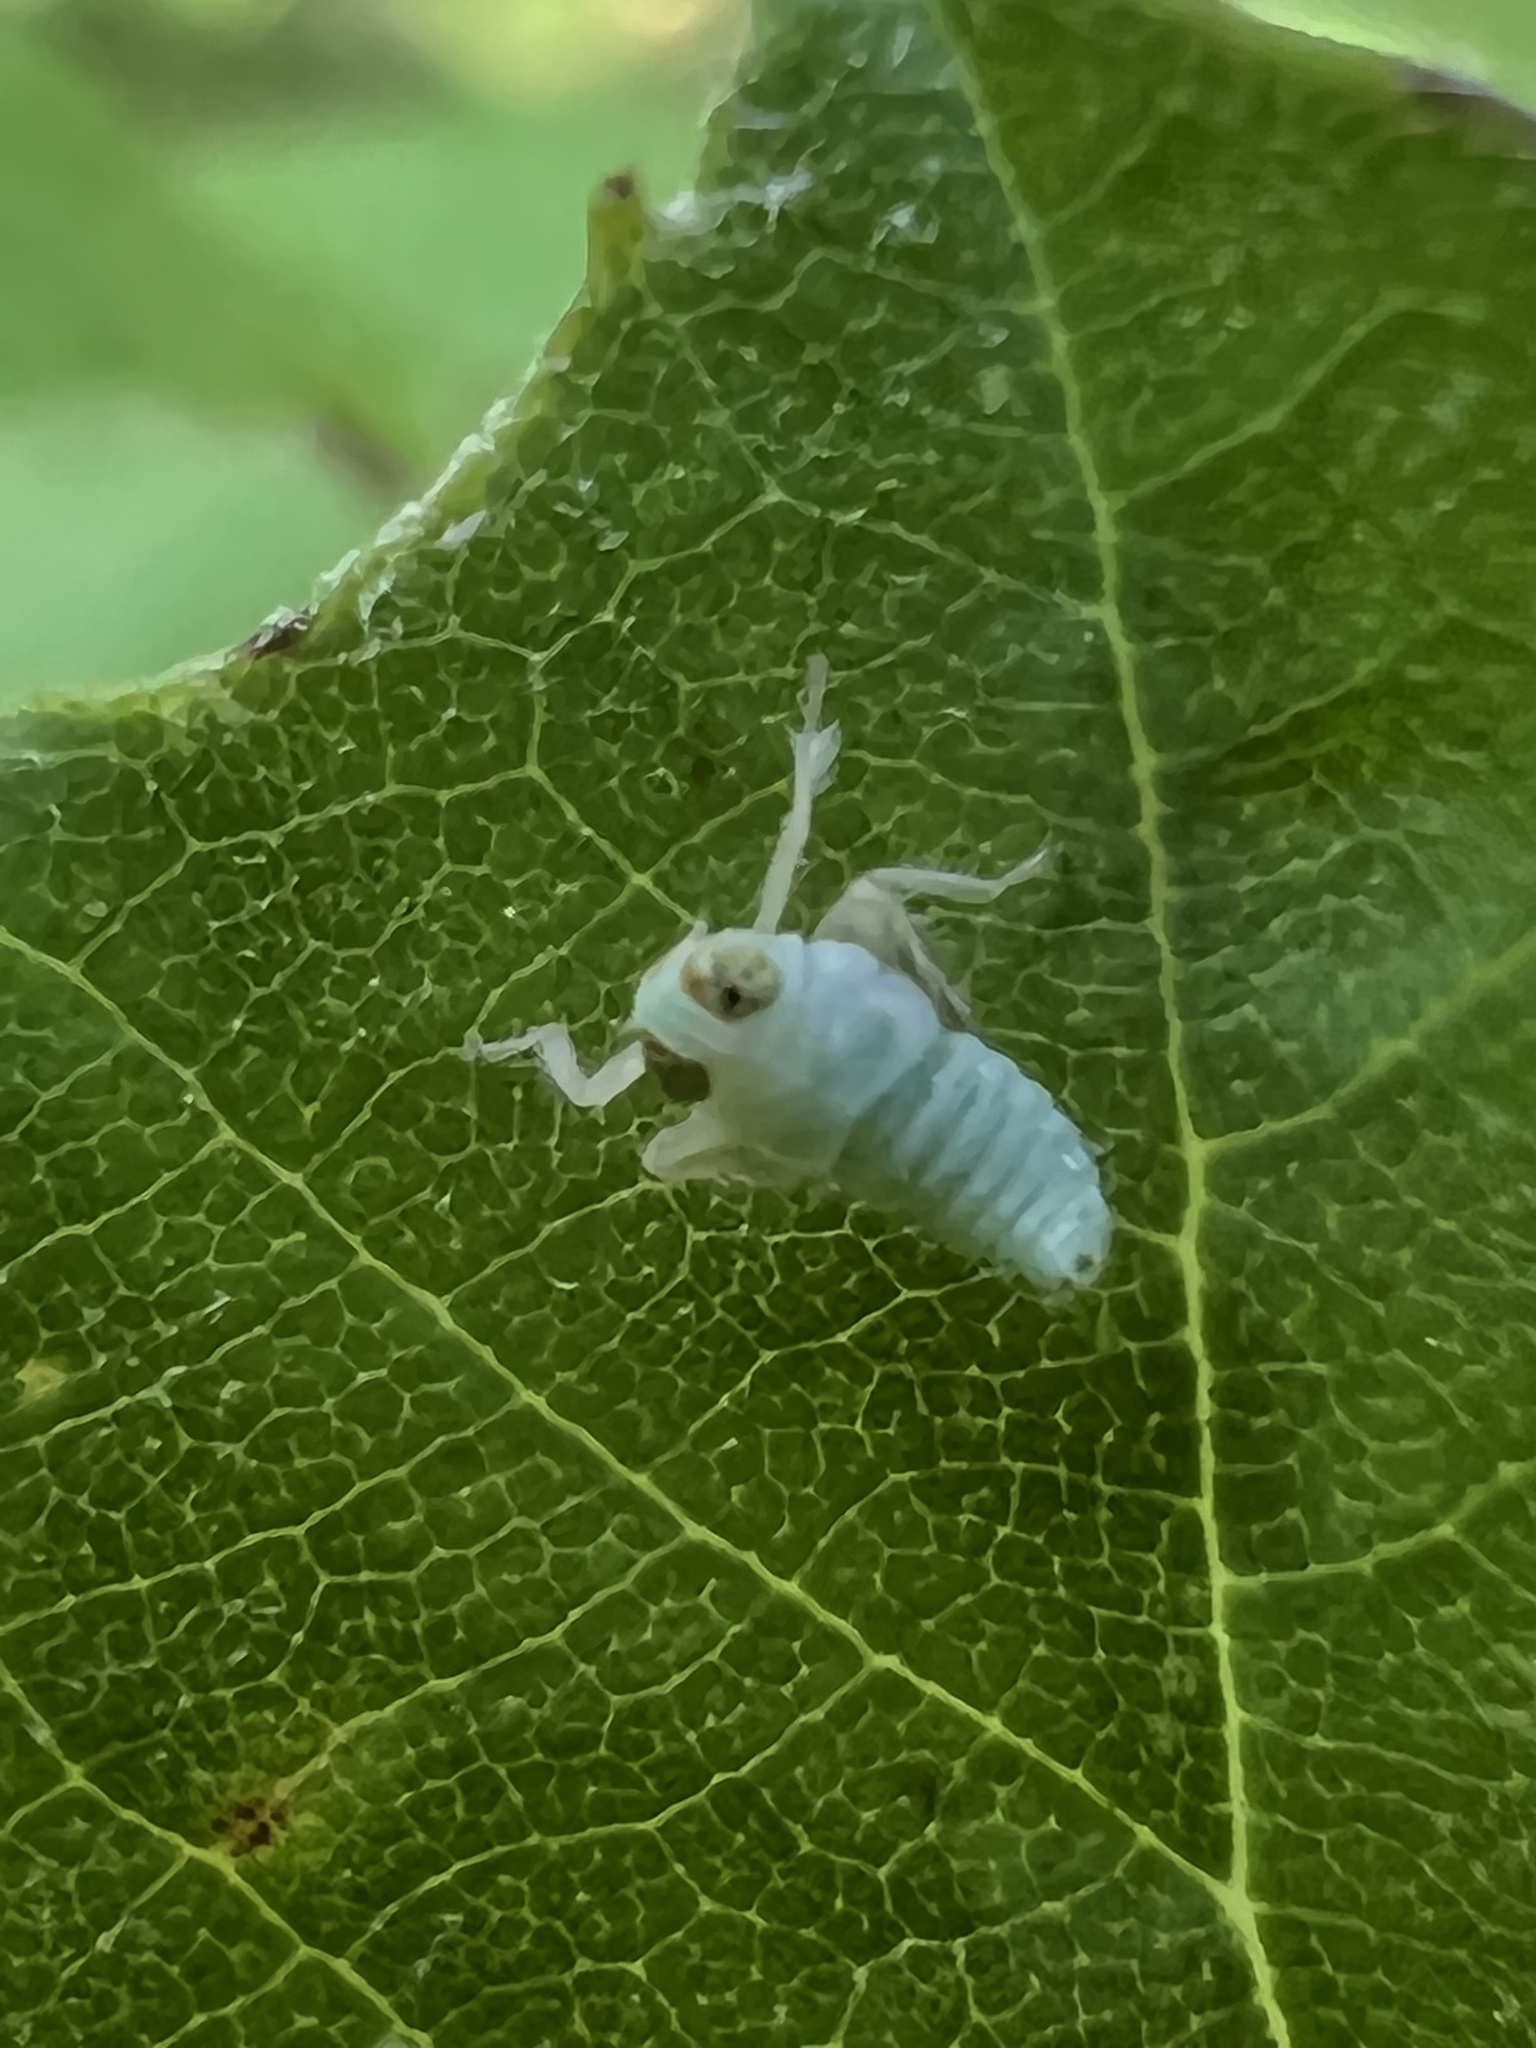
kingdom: Animalia
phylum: Arthropoda
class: Insecta
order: Hemiptera
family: Cicadellidae
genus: Jikradia
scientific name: Jikradia olitoria
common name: Coppery leafhopper
